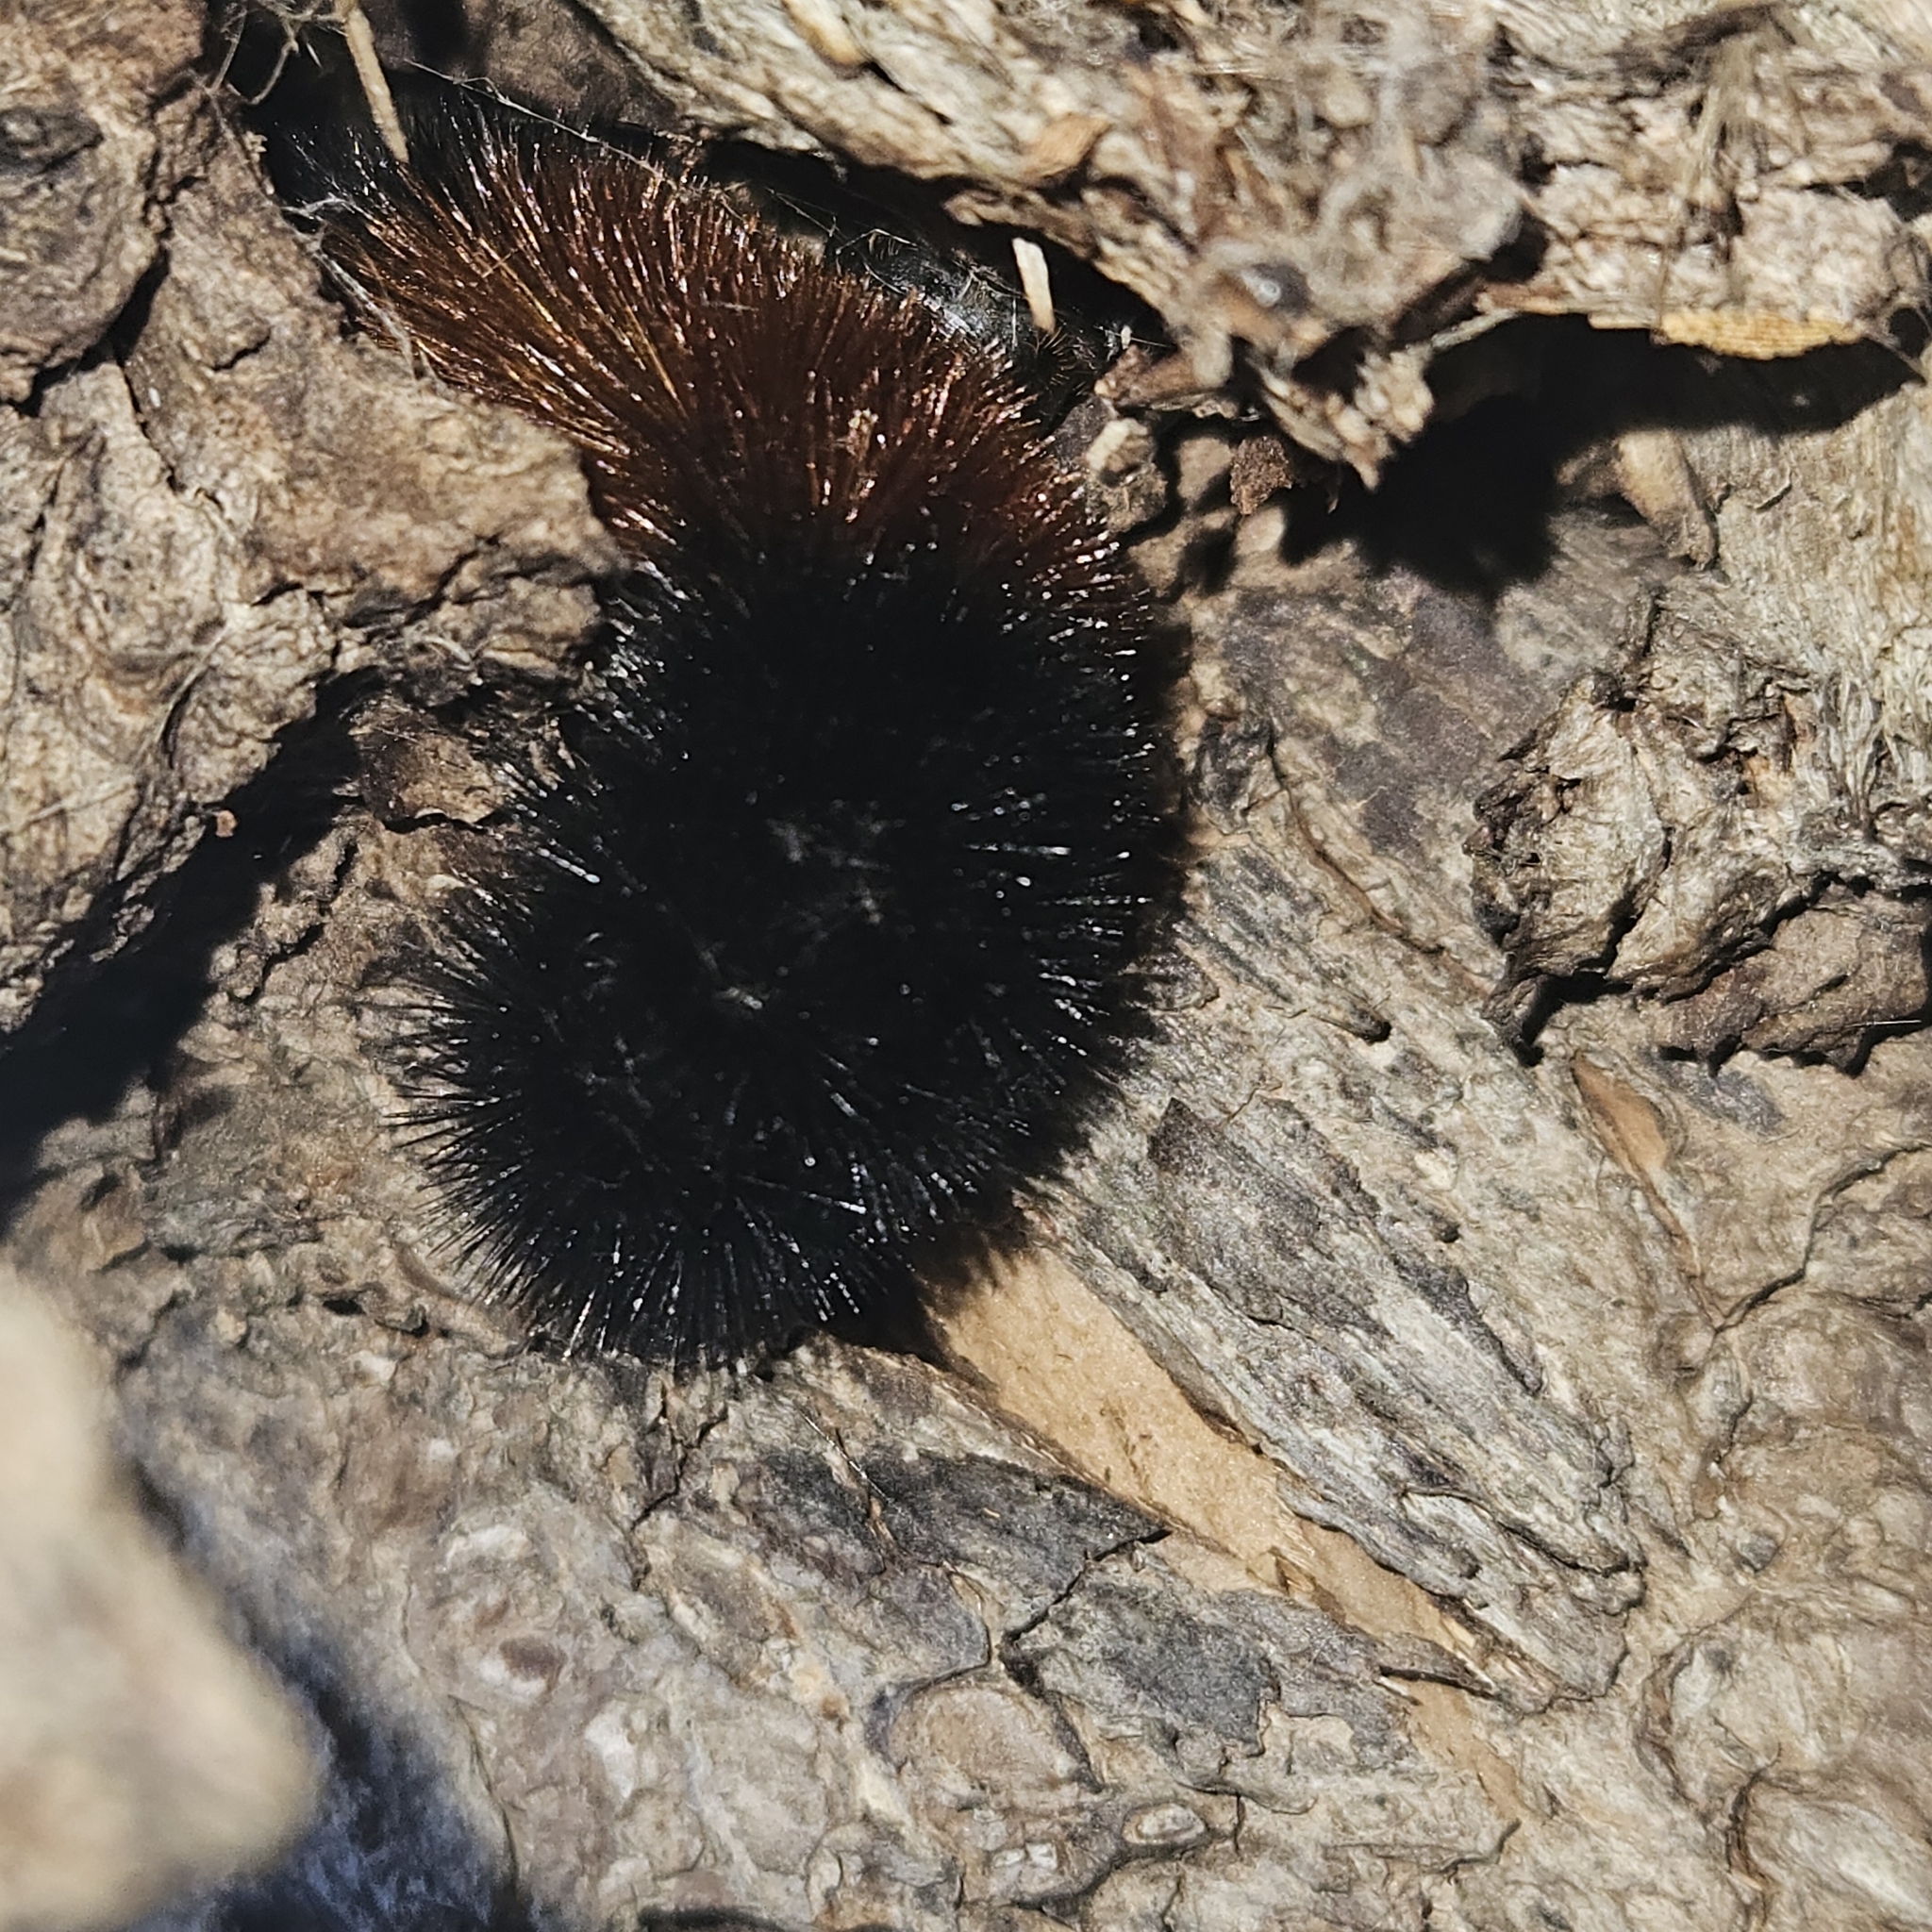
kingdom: Animalia
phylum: Arthropoda
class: Insecta
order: Lepidoptera
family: Erebidae
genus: Pyrrharctia
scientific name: Pyrrharctia isabella
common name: Isabella tiger moth
